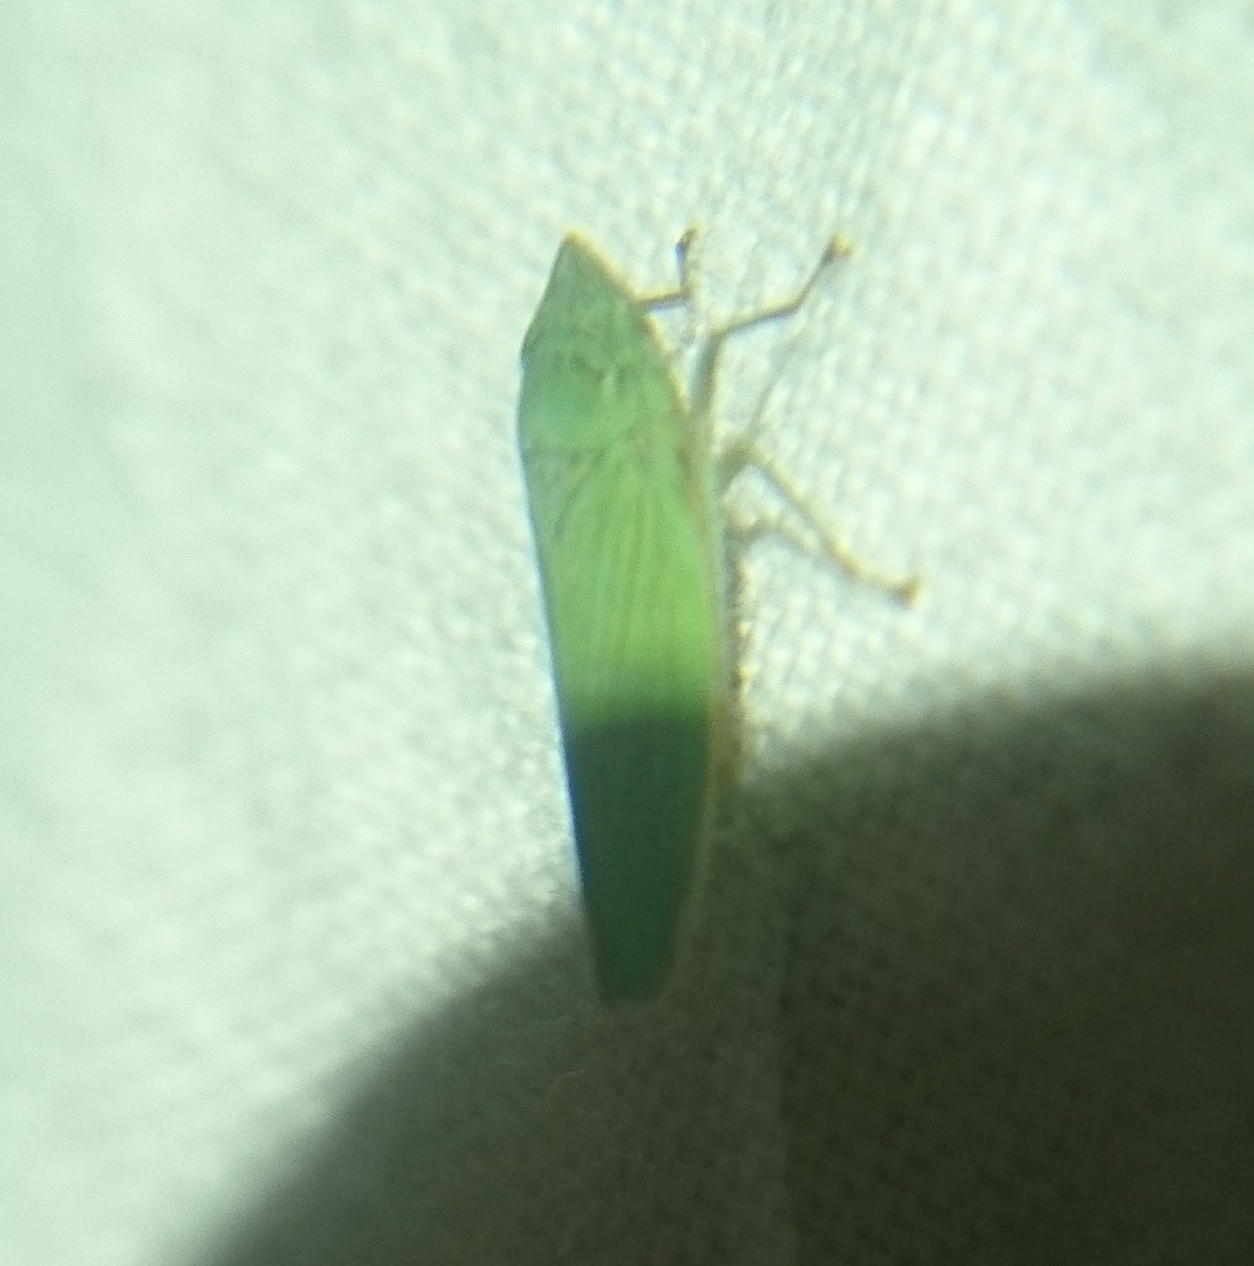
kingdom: Animalia
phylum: Arthropoda
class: Insecta
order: Hemiptera
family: Cicadellidae
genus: Draeculacephala
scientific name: Draeculacephala inscripta
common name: Leafhopper
